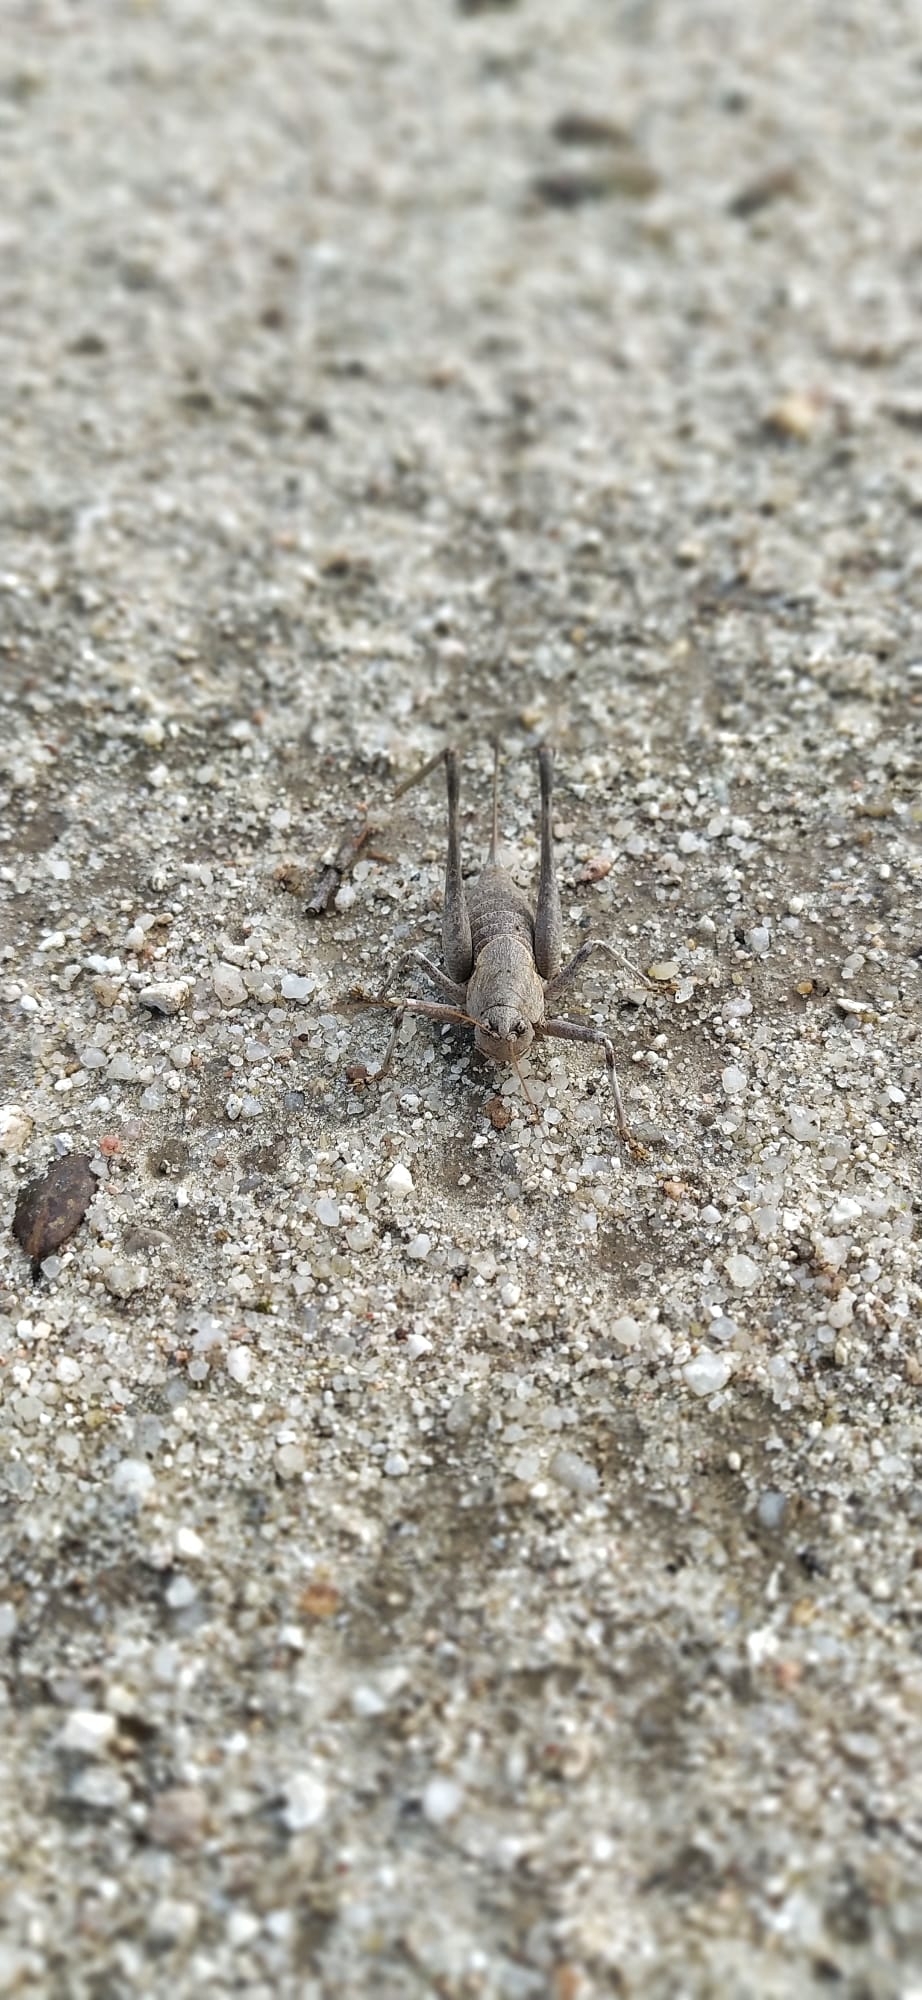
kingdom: Animalia
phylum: Arthropoda
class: Insecta
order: Orthoptera
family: Tettigoniidae
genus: Thyreonotus
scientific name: Thyreonotus bidens
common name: Two-toothed bush-cricket
